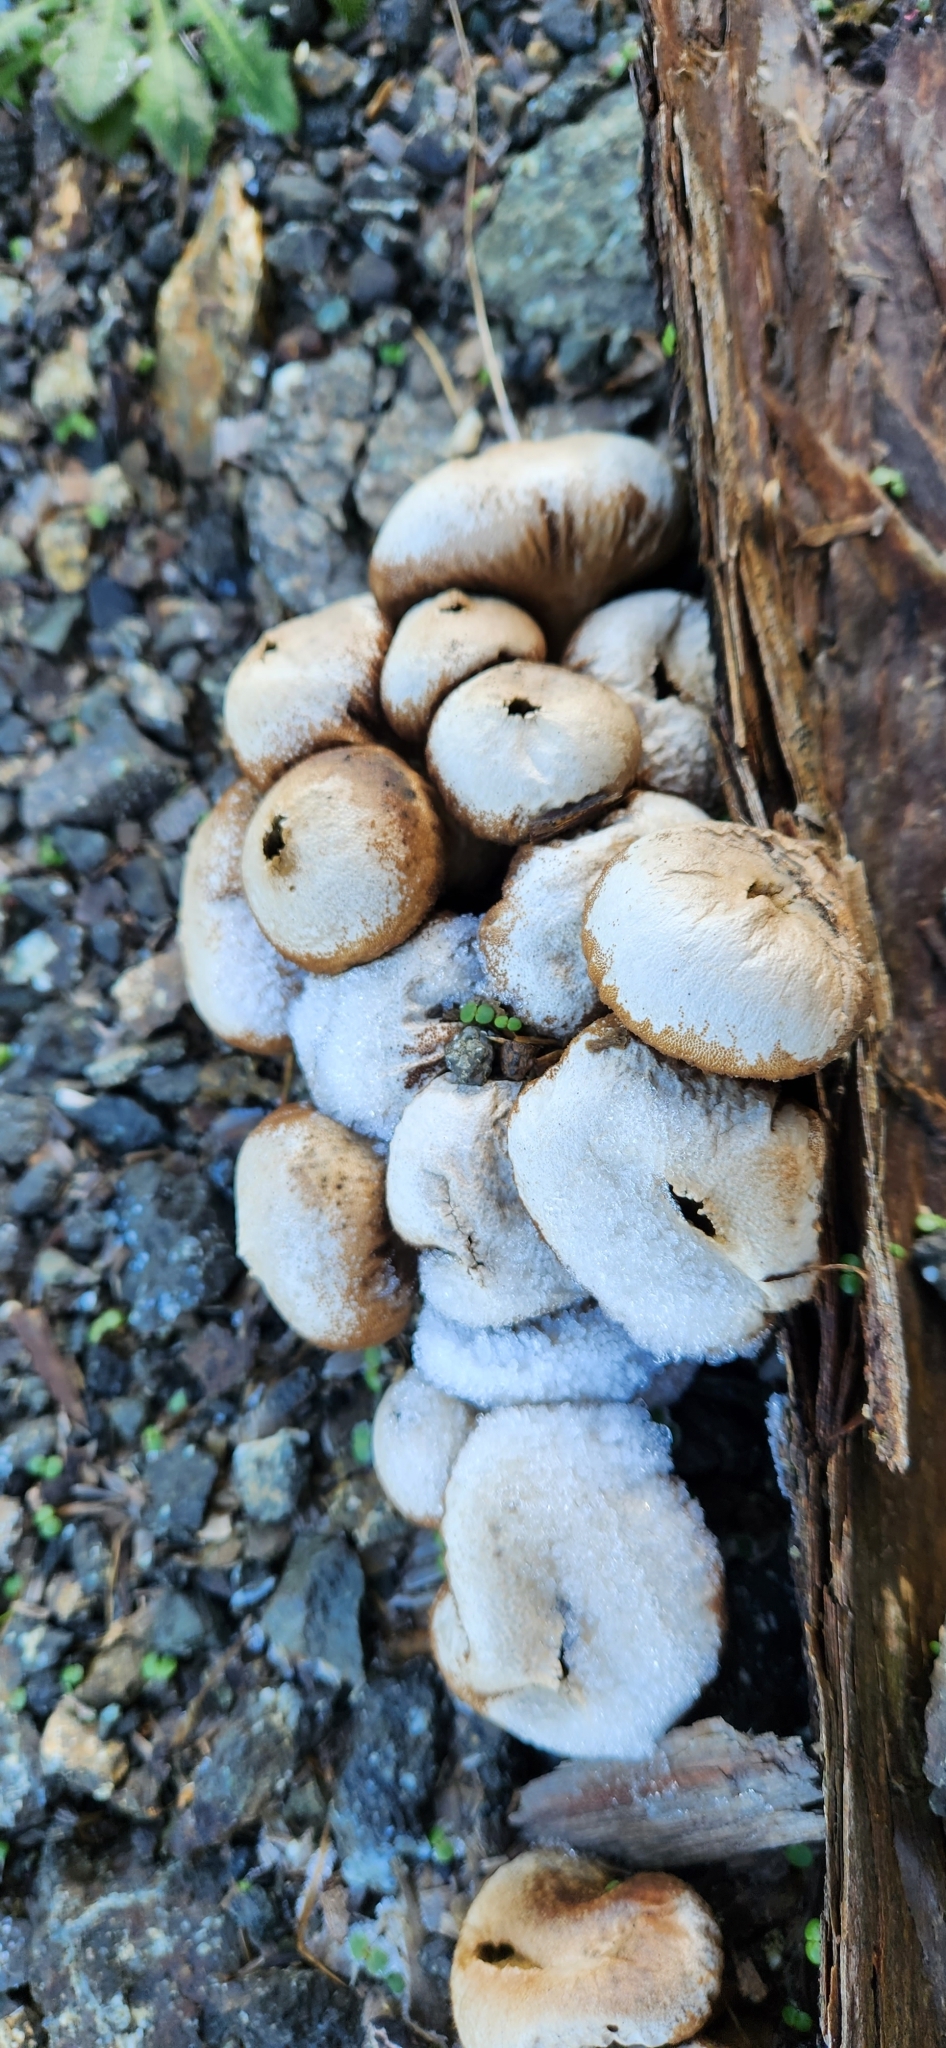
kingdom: Fungi
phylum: Basidiomycota
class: Agaricomycetes
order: Agaricales
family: Lycoperdaceae
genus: Apioperdon
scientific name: Apioperdon pyriforme
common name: Pear-shaped puffball
